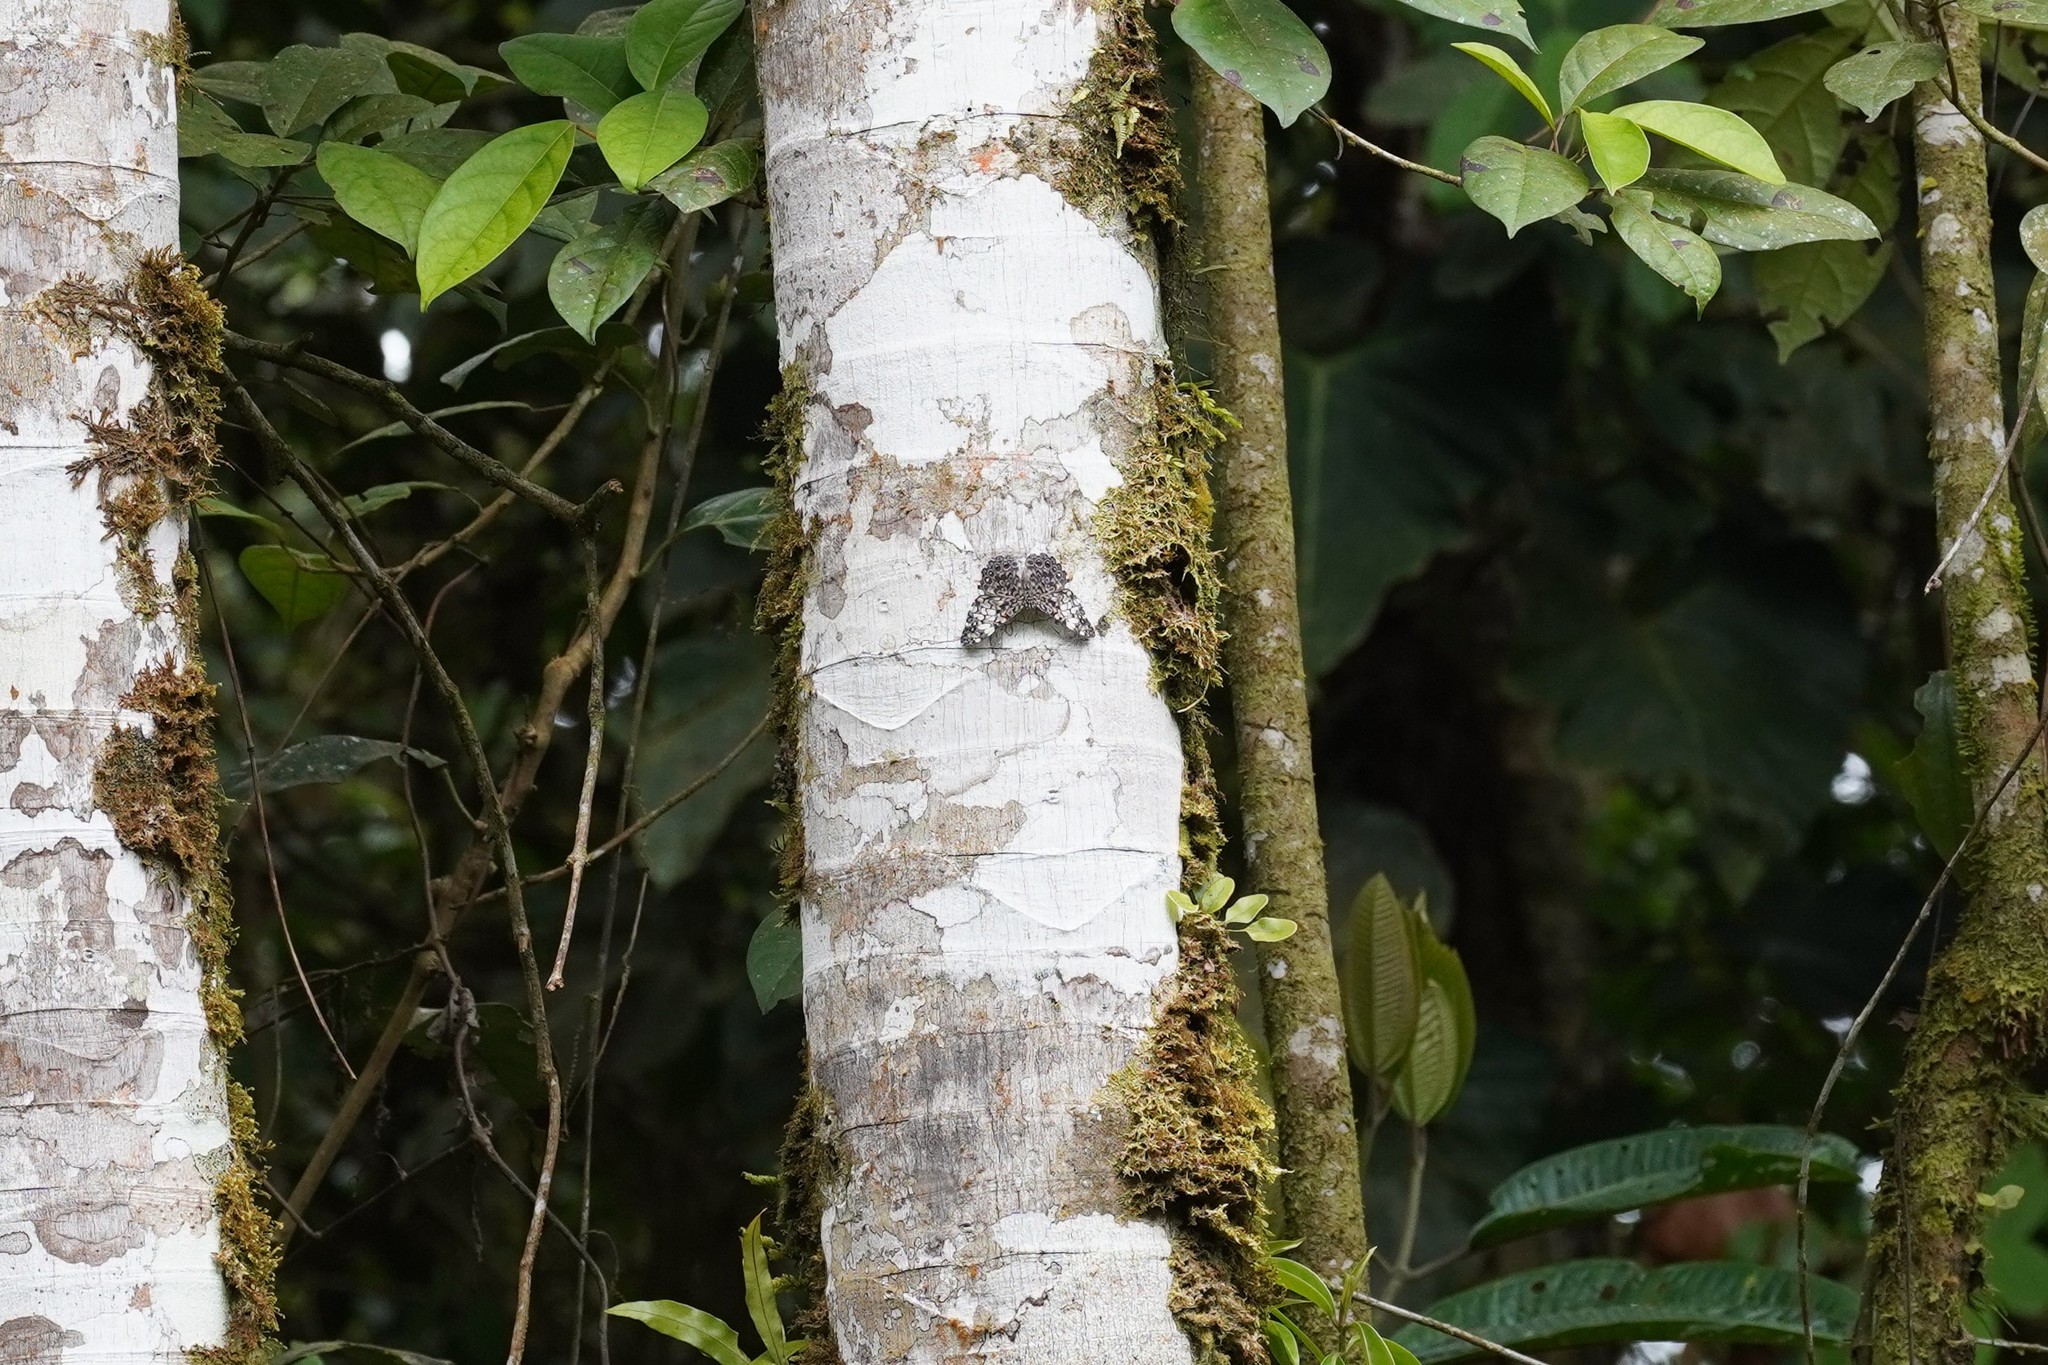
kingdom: Animalia
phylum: Arthropoda
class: Insecta
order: Lepidoptera
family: Nymphalidae
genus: Hamadryas
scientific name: Hamadryas fornax
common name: Orange cracker
